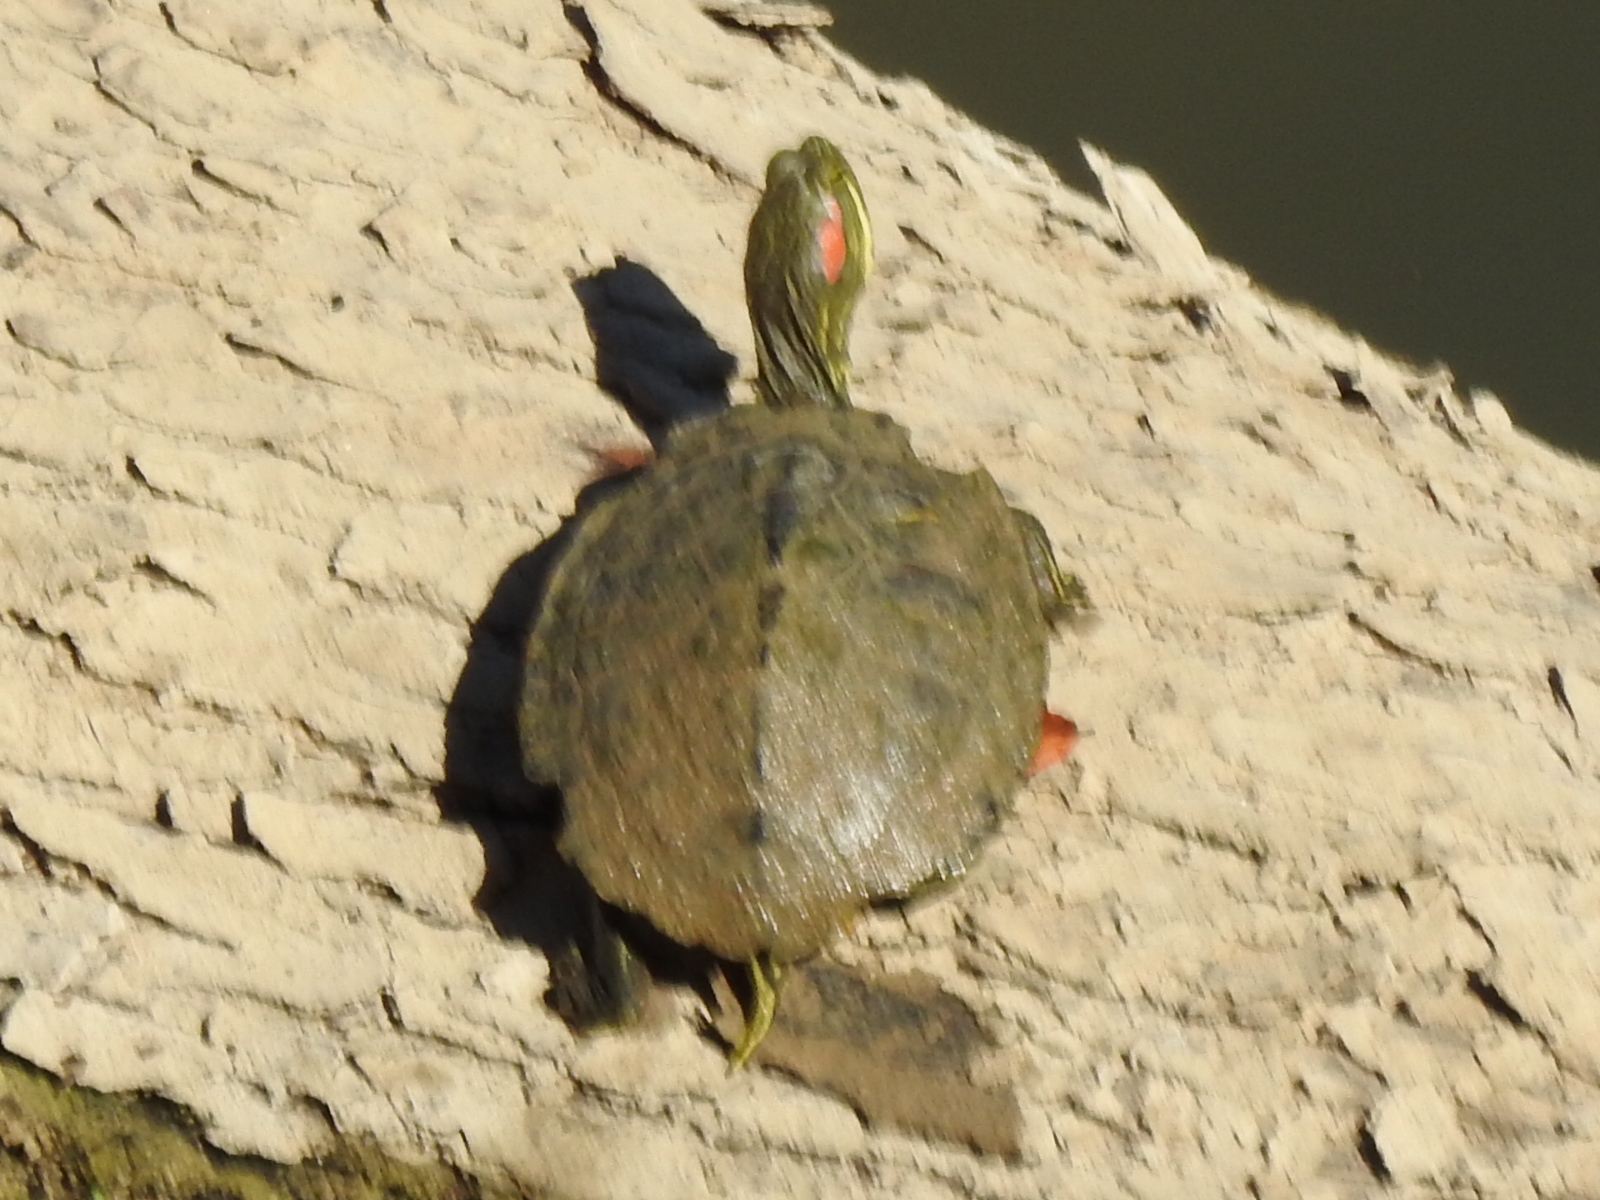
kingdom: Animalia
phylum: Chordata
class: Testudines
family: Emydidae
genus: Trachemys
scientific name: Trachemys scripta
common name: Slider
